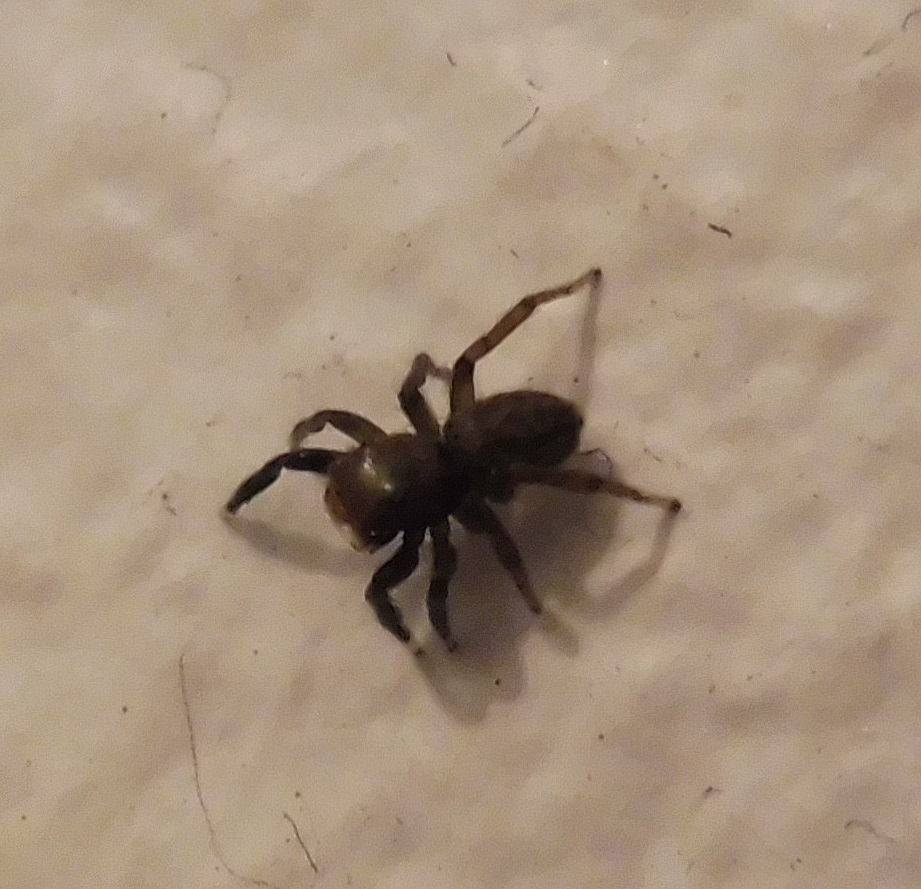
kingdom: Animalia
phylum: Arthropoda
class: Arachnida
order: Araneae
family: Salticidae
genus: Euophrys
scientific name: Euophrys frontalis
